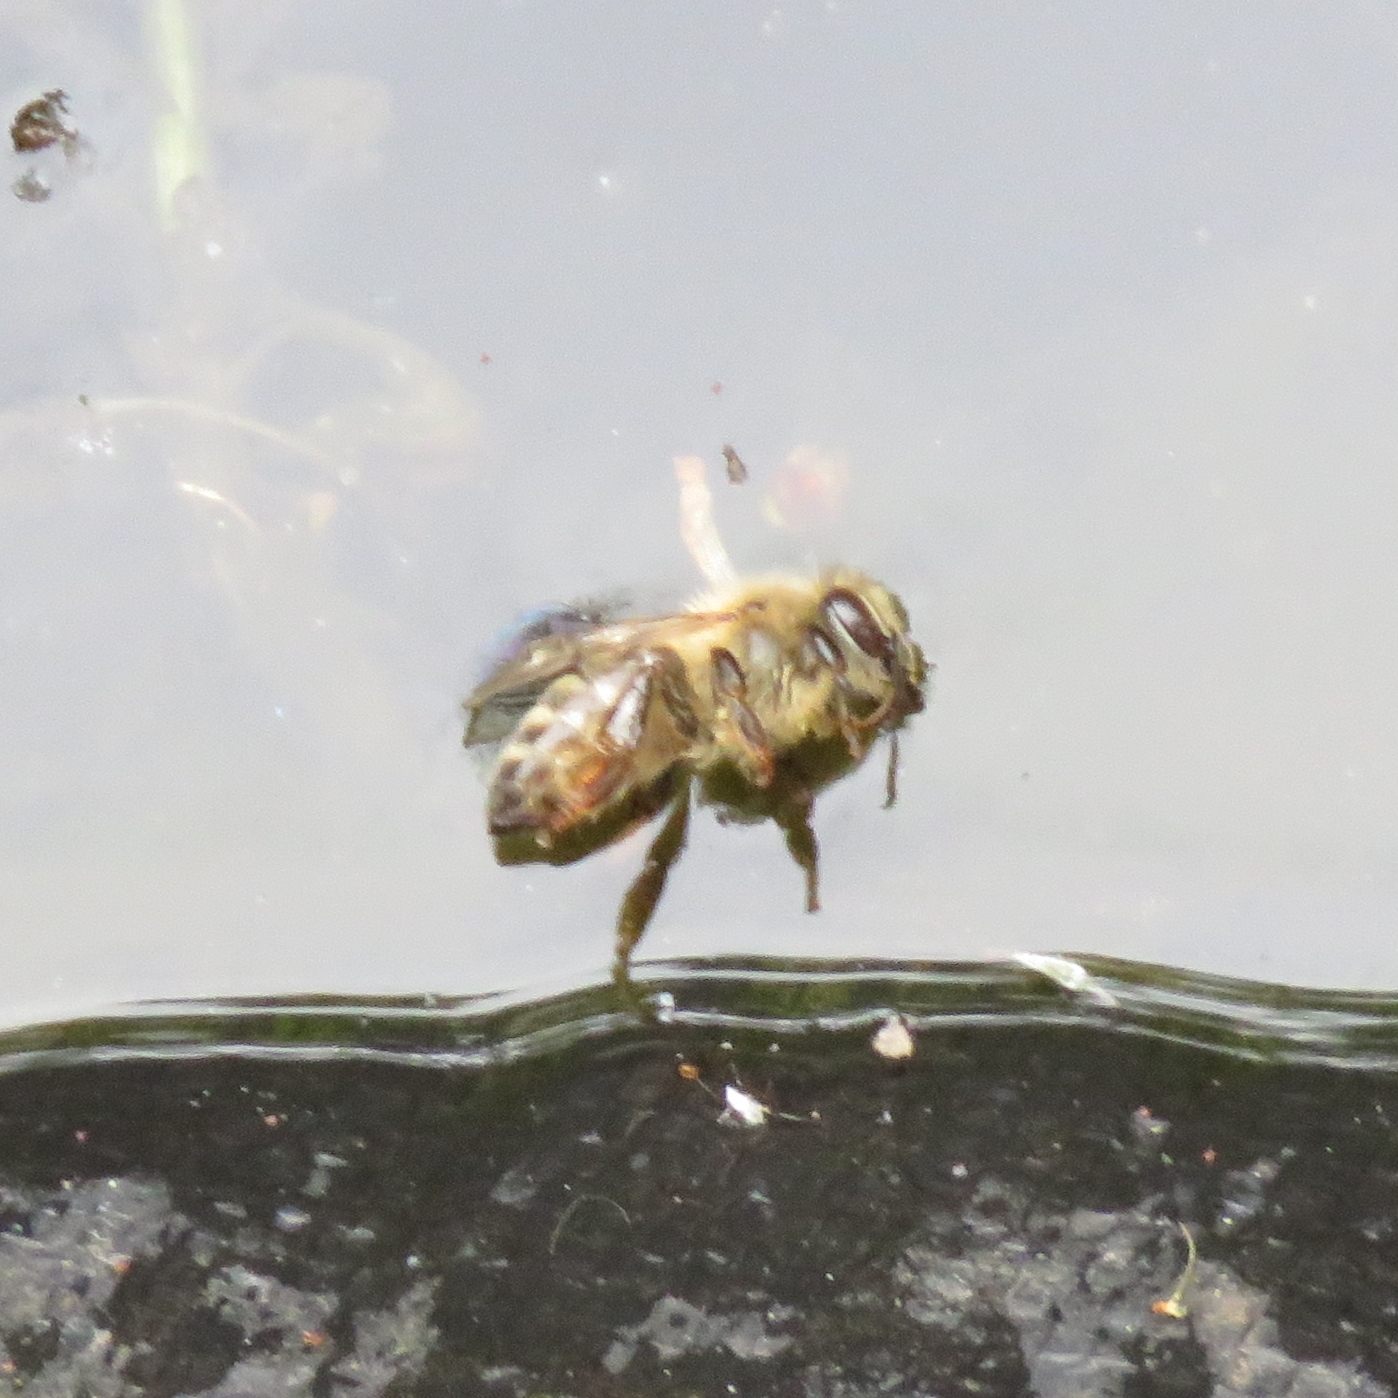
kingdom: Animalia
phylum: Arthropoda
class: Insecta
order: Hymenoptera
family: Apidae
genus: Apis
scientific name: Apis mellifera
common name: Honey bee
